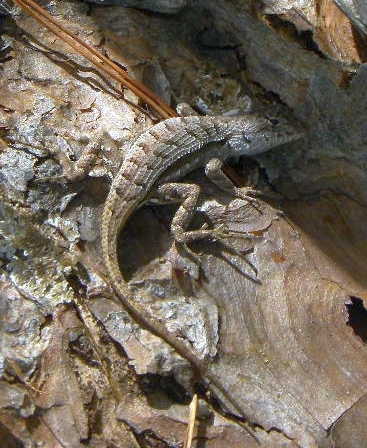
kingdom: Animalia
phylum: Chordata
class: Squamata
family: Phrynosomatidae
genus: Sceloporus
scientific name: Sceloporus woodi
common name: Florida scrub lizard
